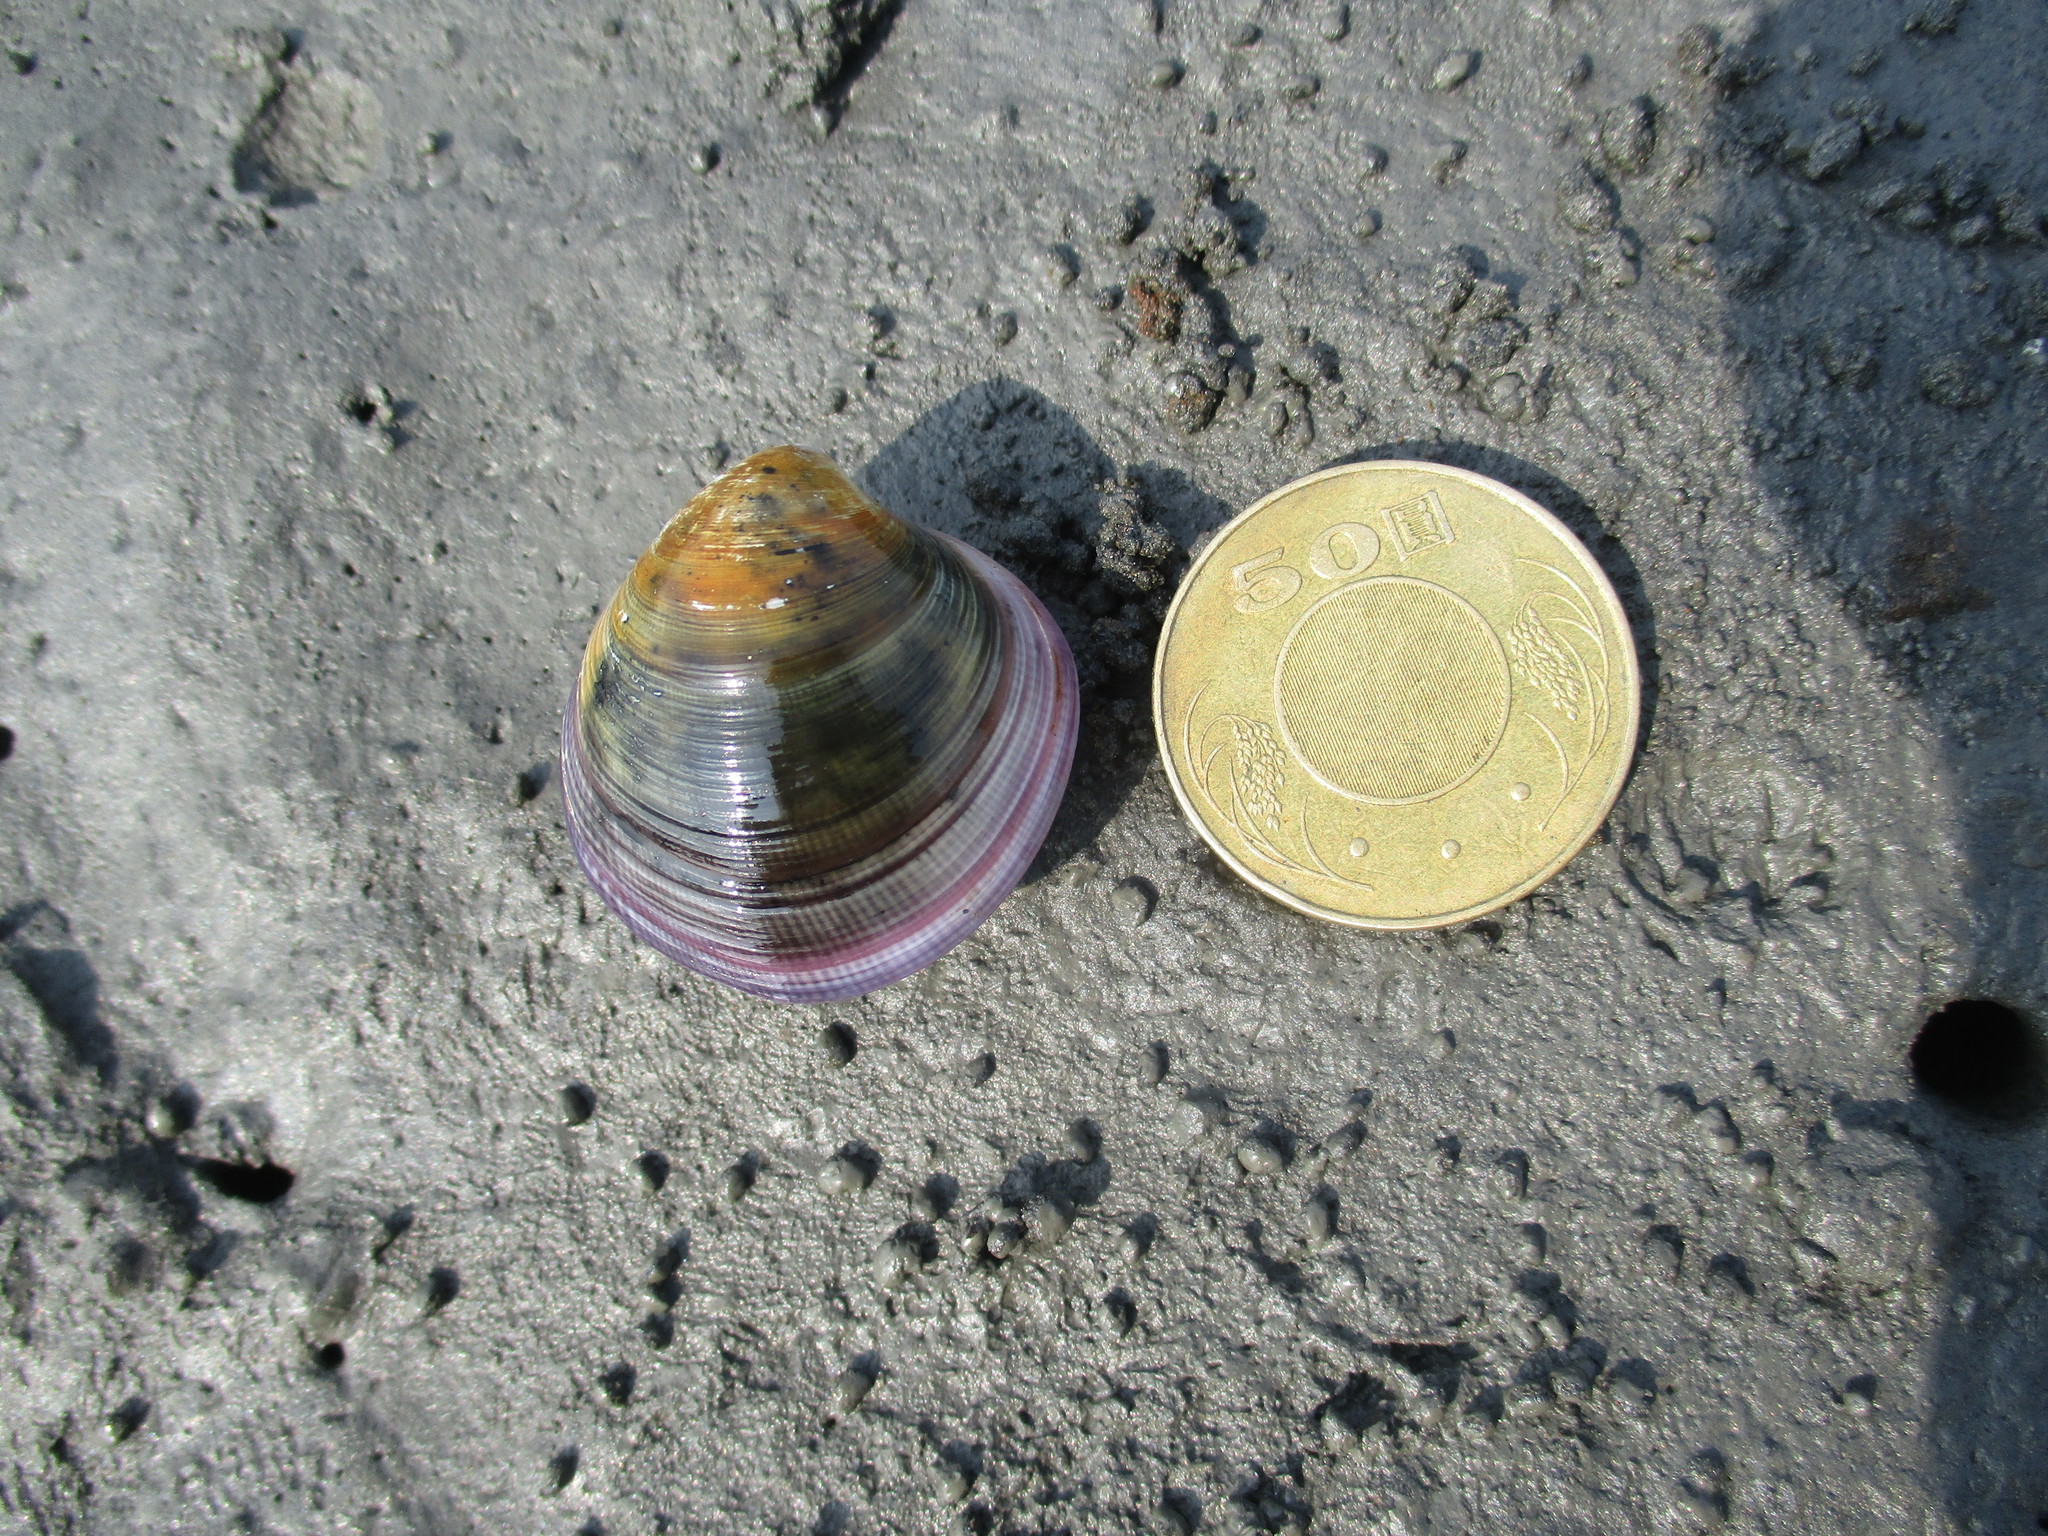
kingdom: Animalia
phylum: Mollusca
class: Bivalvia
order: Venerida
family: Veneridae
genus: Cyclina
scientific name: Cyclina sinensis
